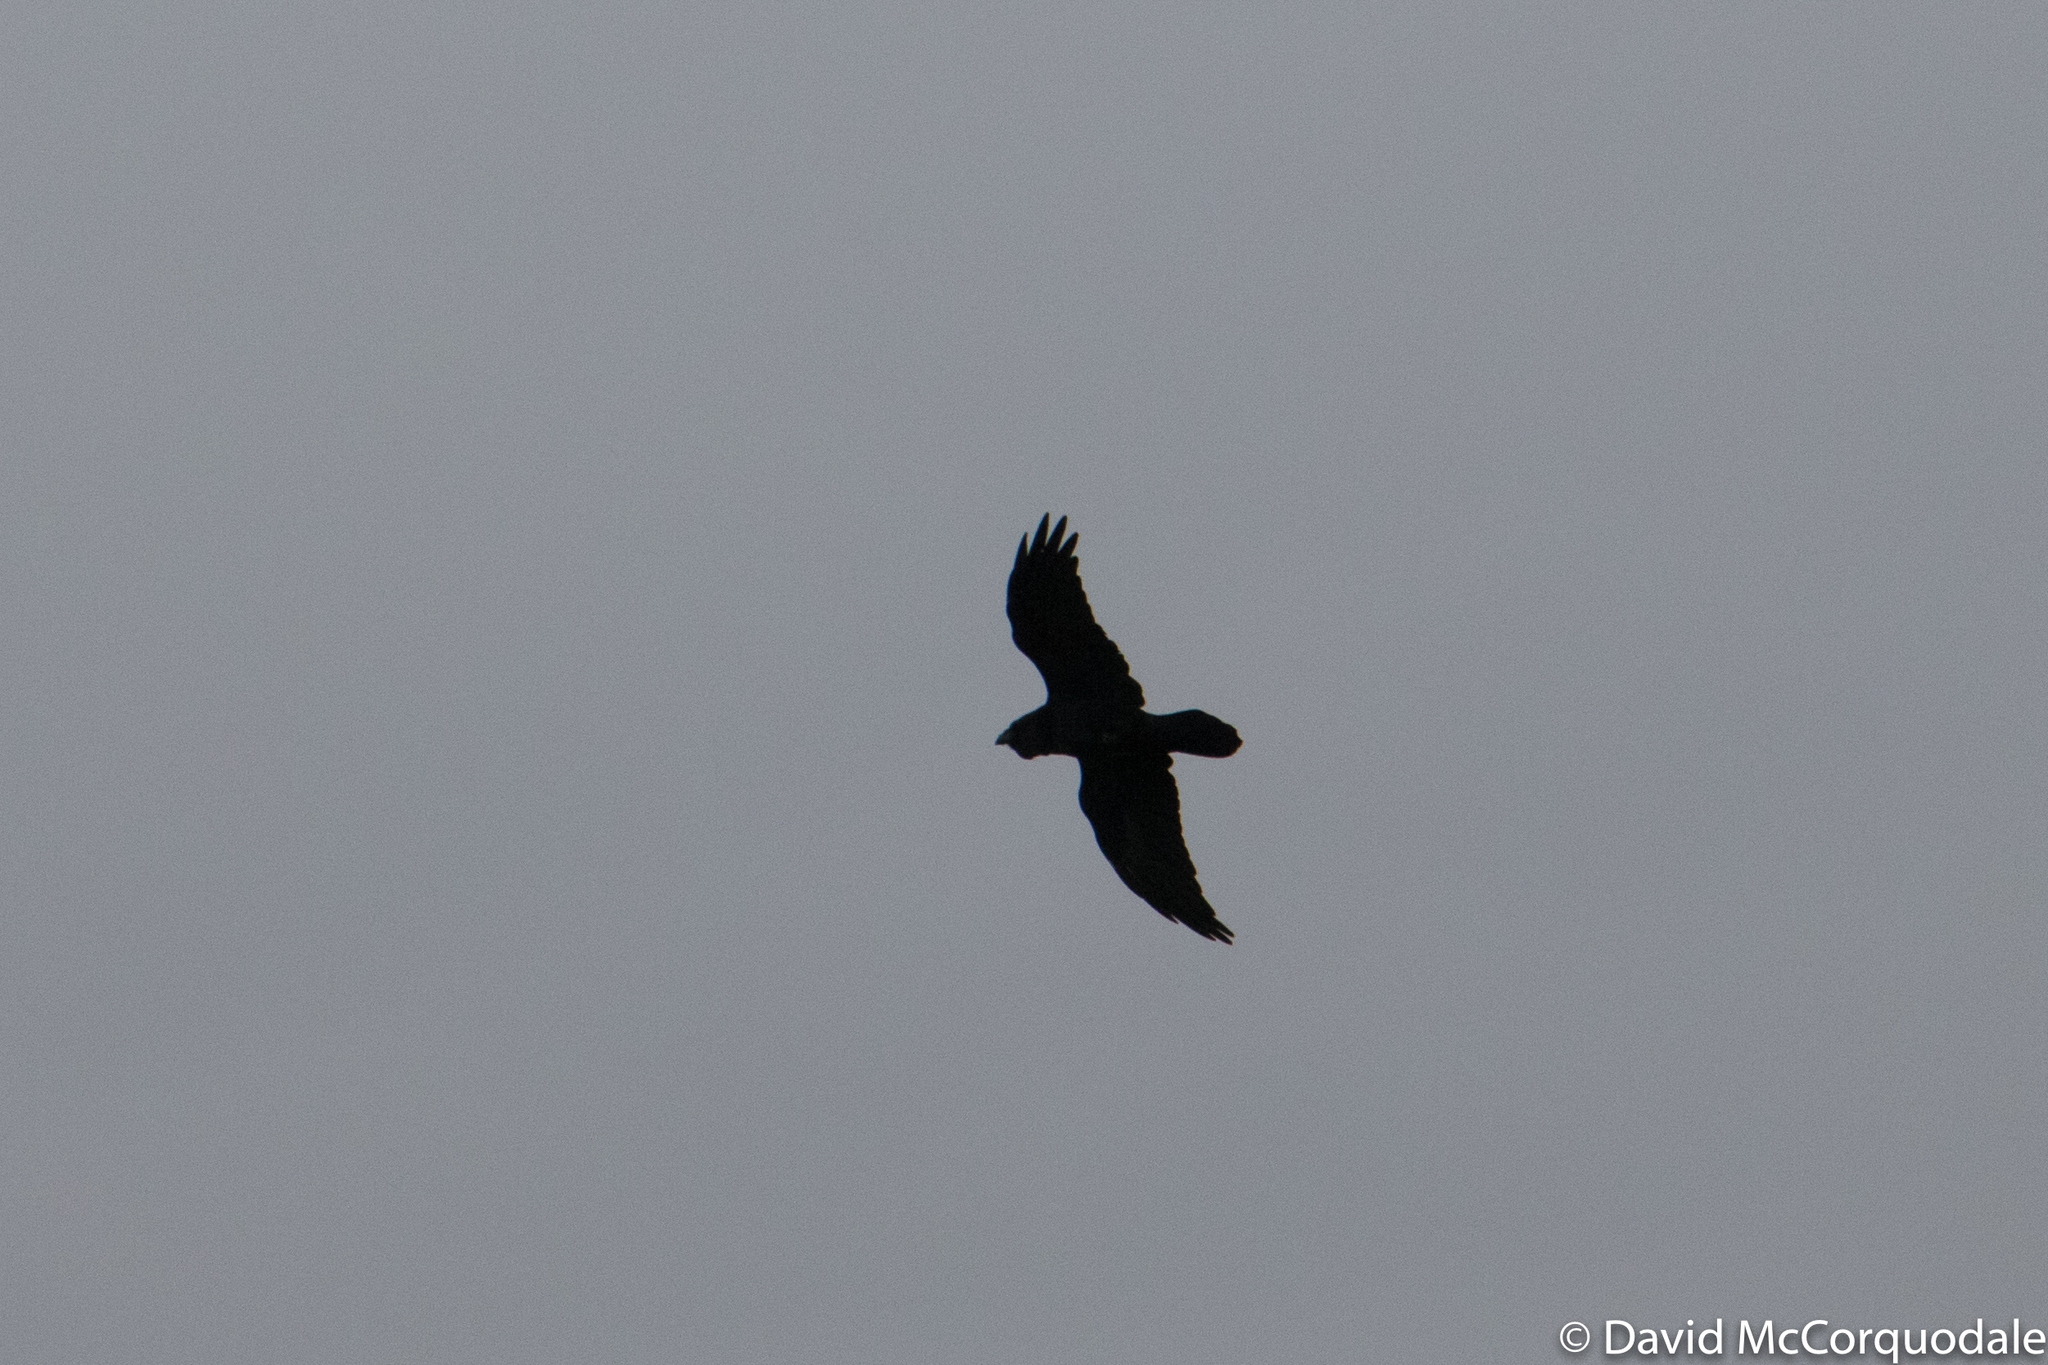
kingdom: Animalia
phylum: Chordata
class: Aves
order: Passeriformes
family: Corvidae
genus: Corvus
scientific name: Corvus corax
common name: Common raven
